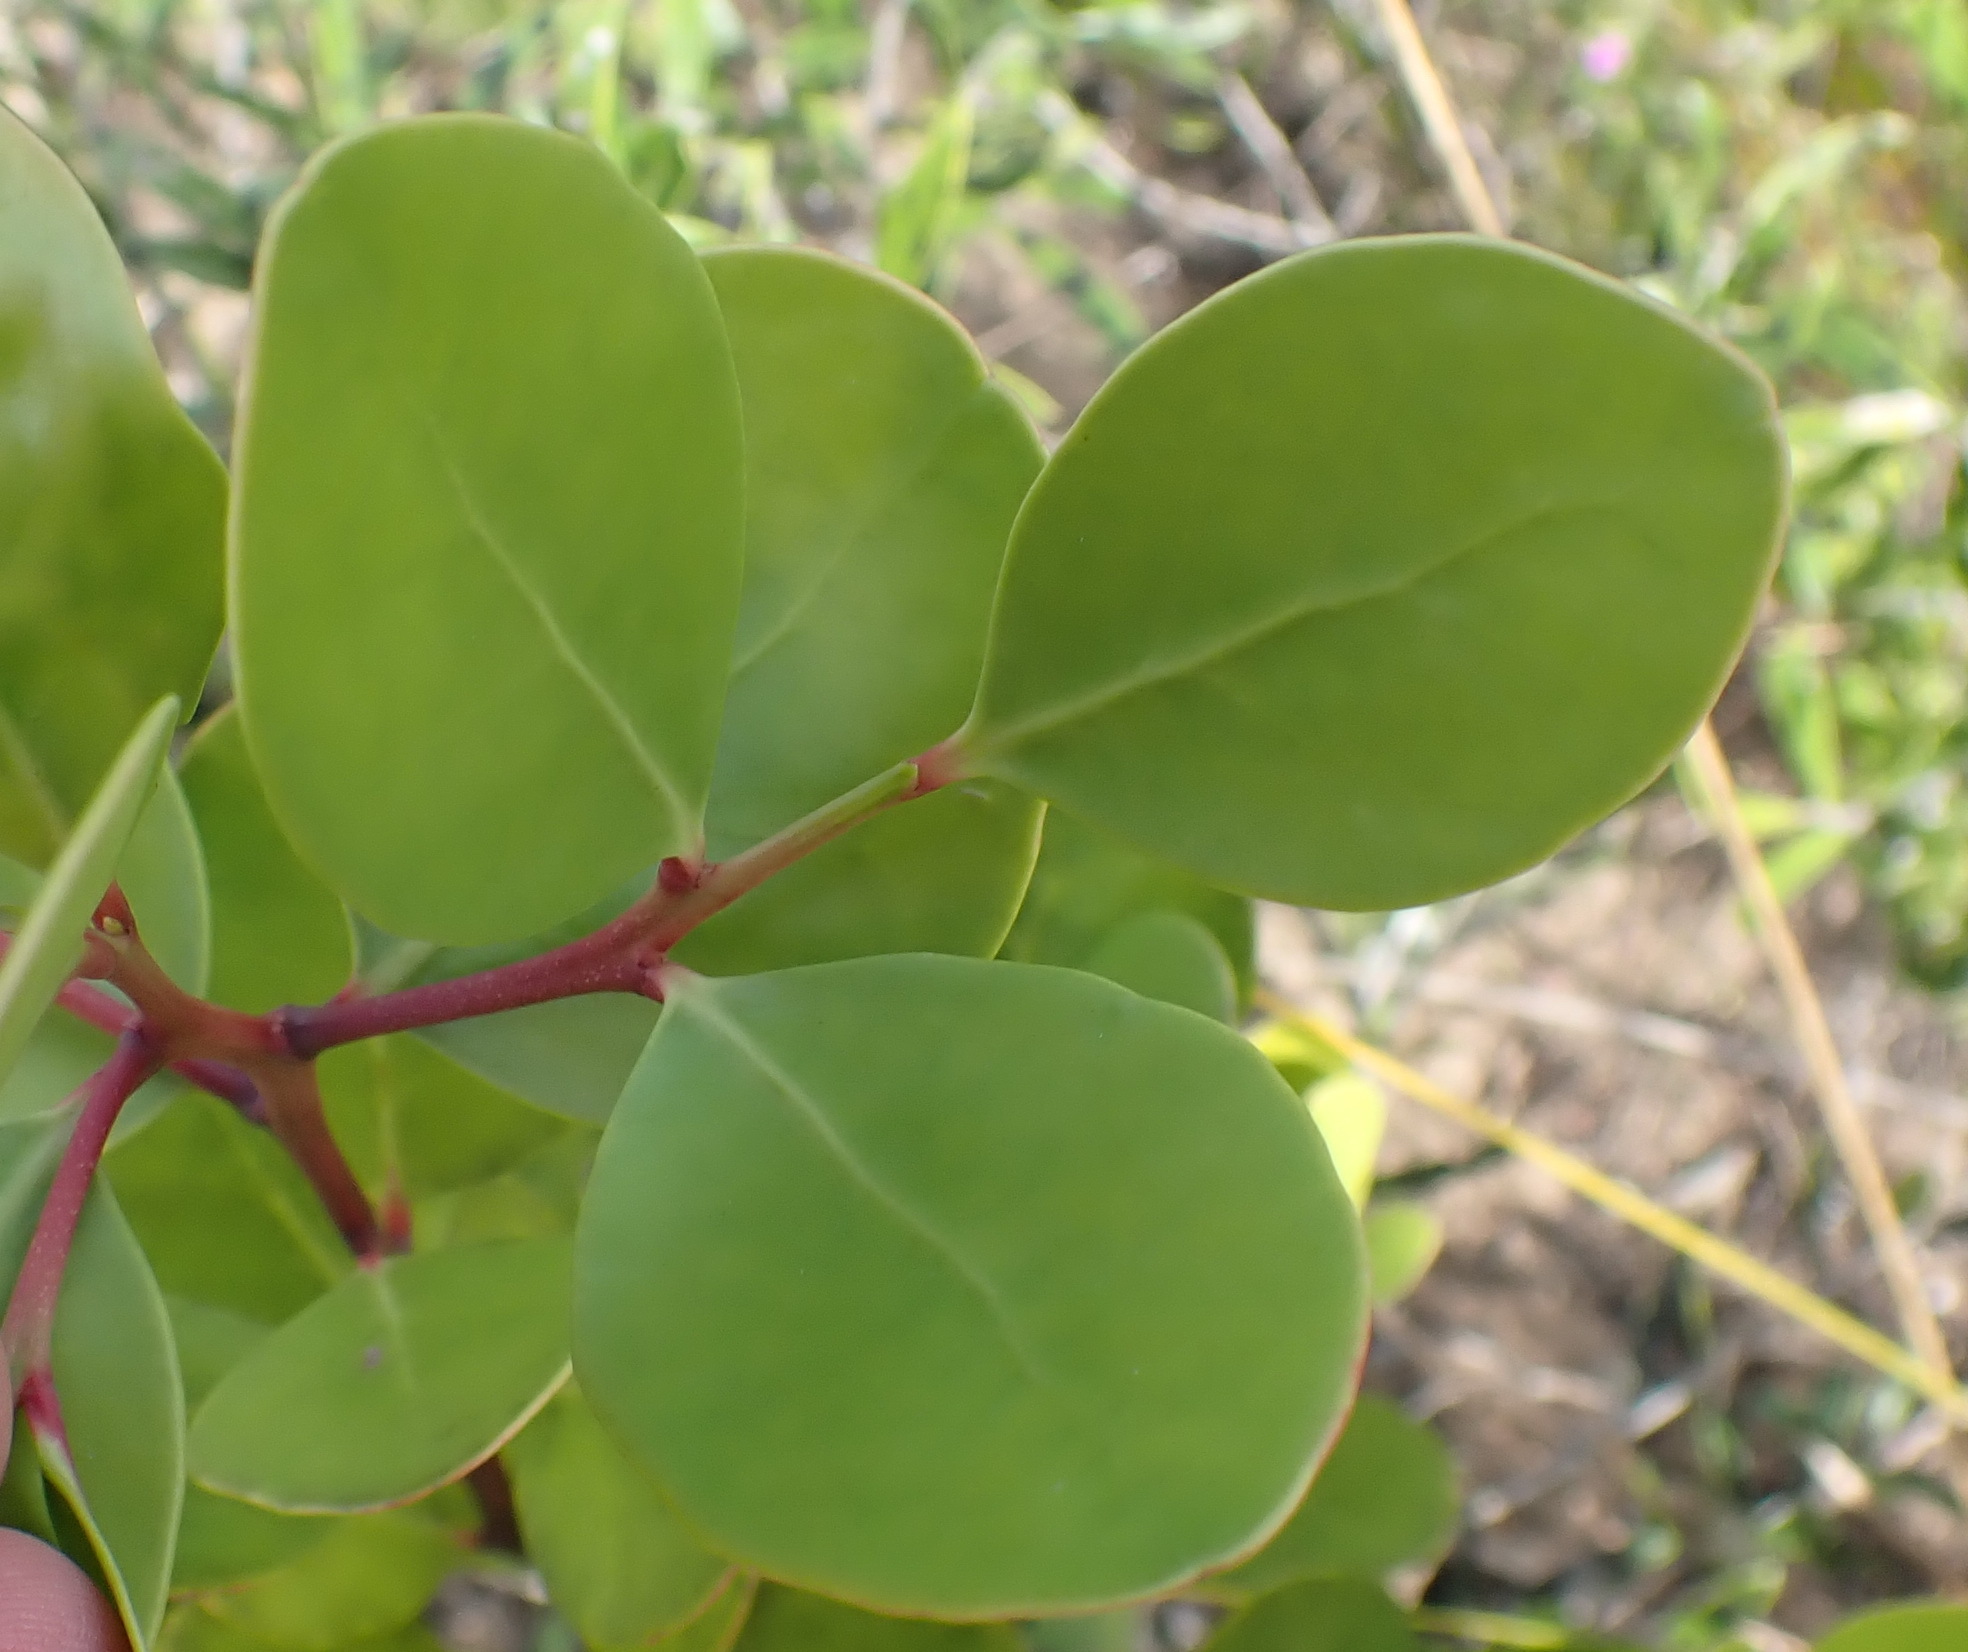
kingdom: Plantae
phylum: Tracheophyta
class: Magnoliopsida
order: Celastrales
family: Celastraceae
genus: Pterocelastrus
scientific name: Pterocelastrus tricuspidatus
